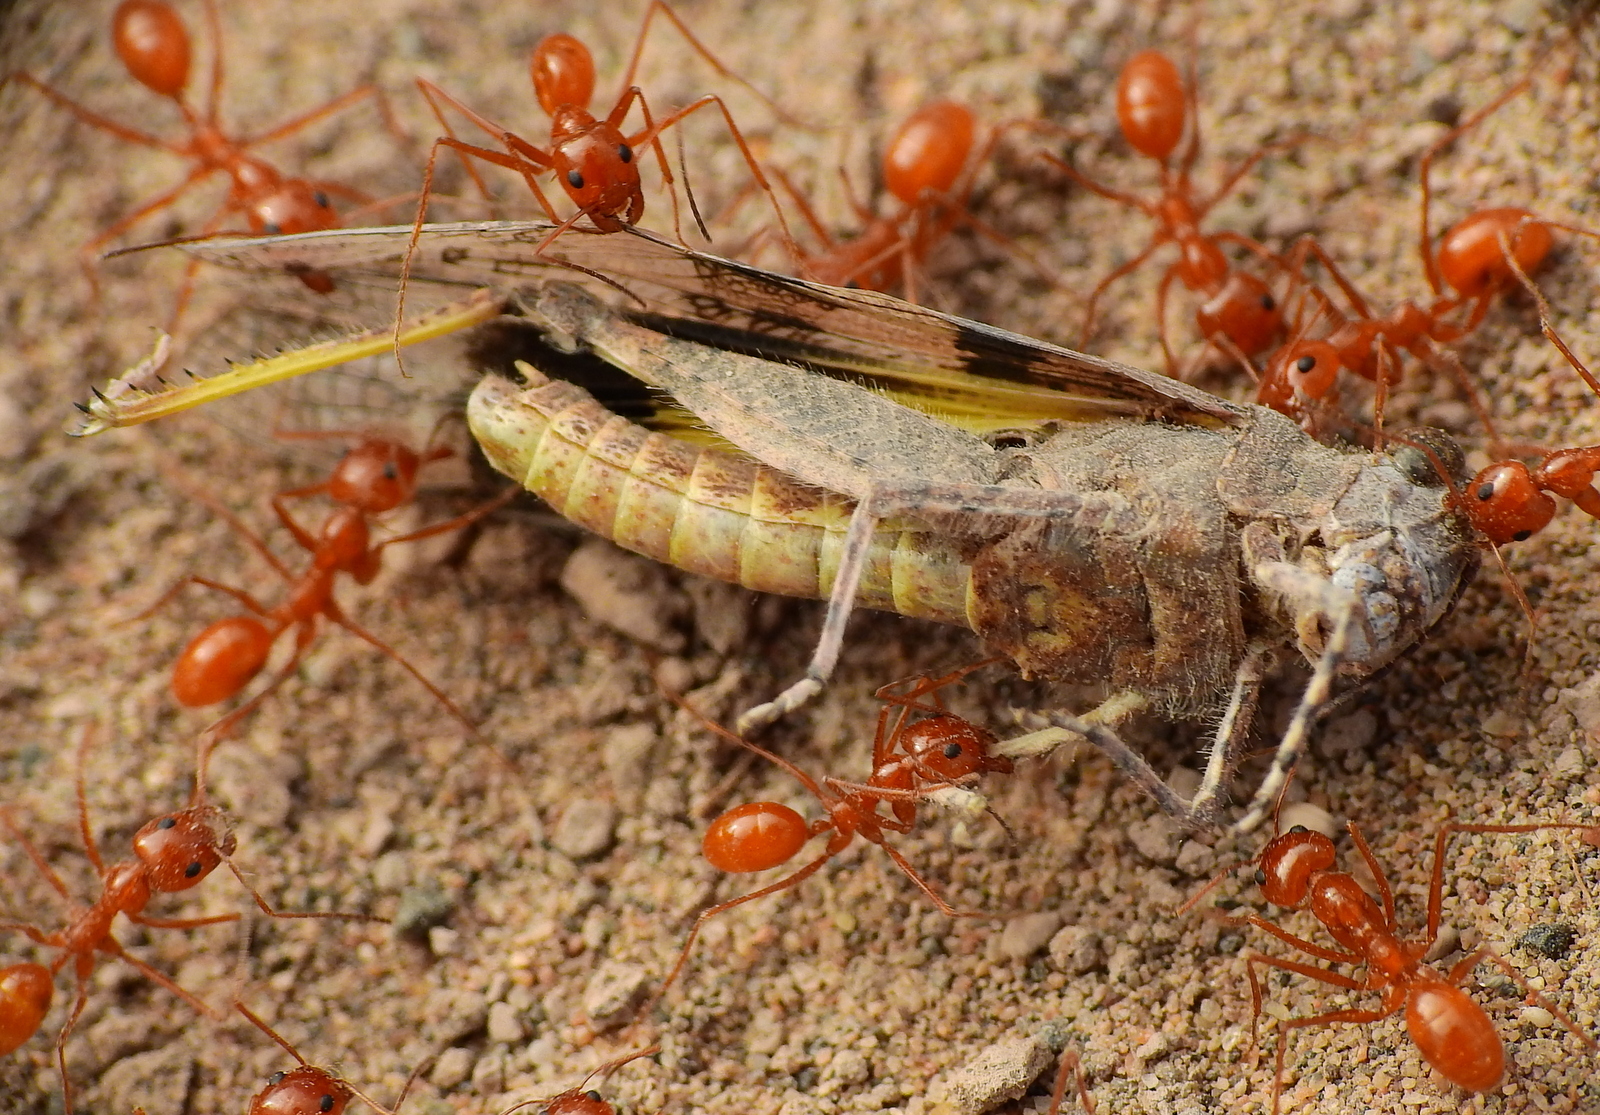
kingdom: Animalia
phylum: Arthropoda
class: Insecta
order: Orthoptera
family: Acrididae
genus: Trimerotropis
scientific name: Trimerotropis pallidipennis
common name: Pallid-winged grasshopper
